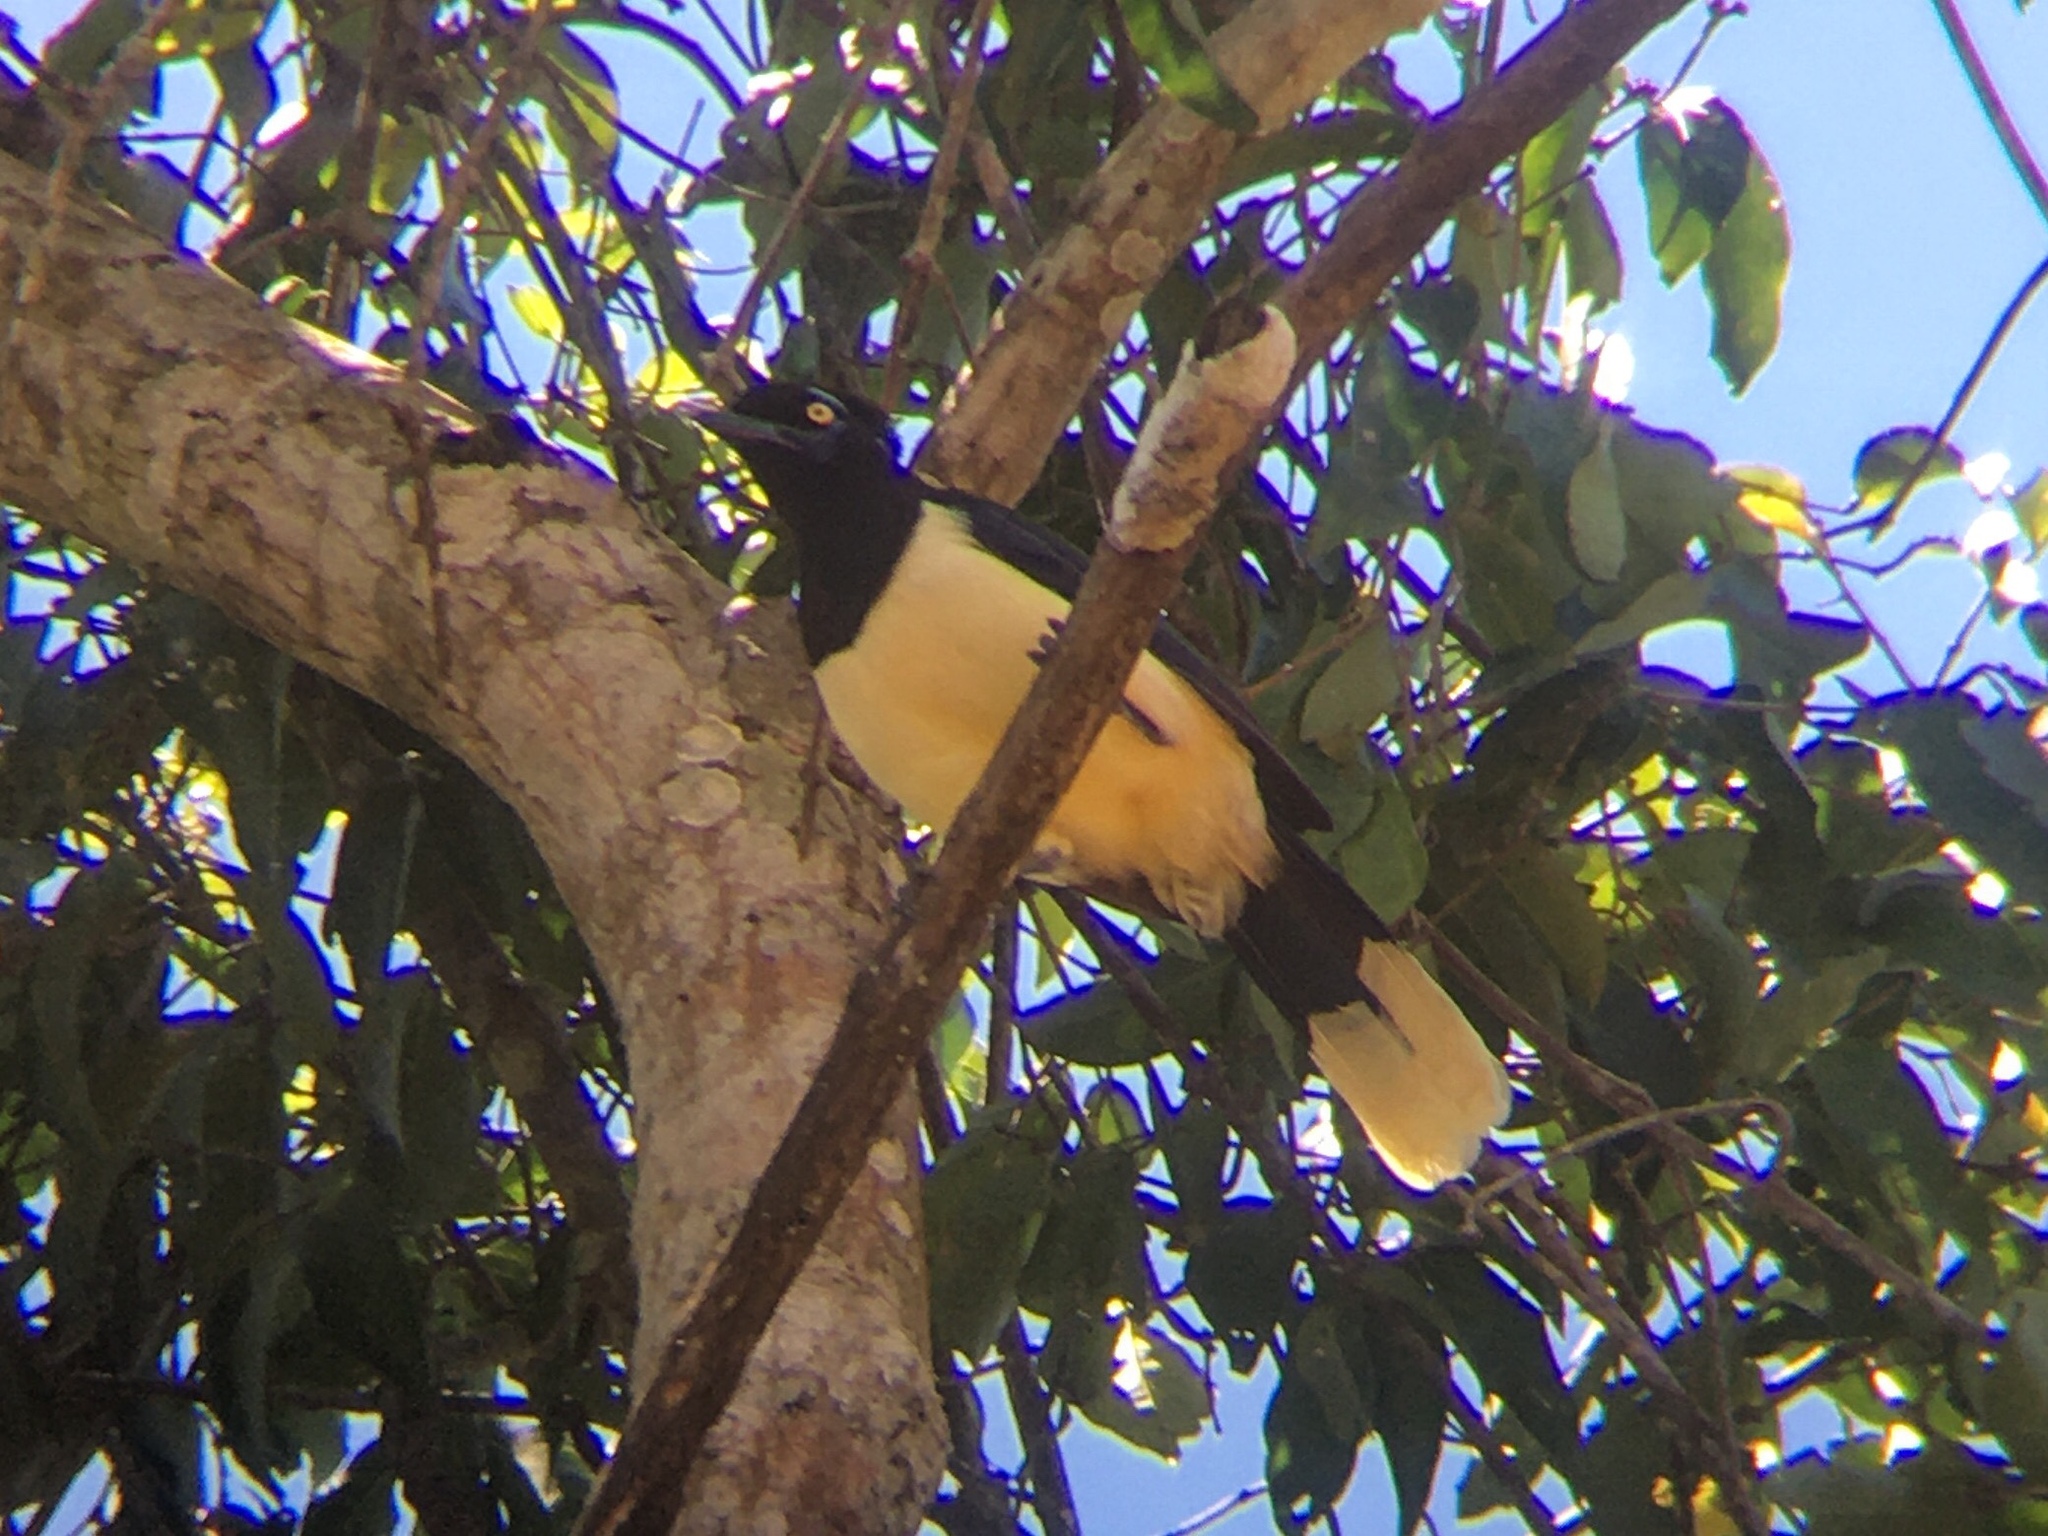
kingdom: Animalia
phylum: Chordata
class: Aves
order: Passeriformes
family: Corvidae
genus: Cyanocorax
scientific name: Cyanocorax chrysops
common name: Plush-crested jay
